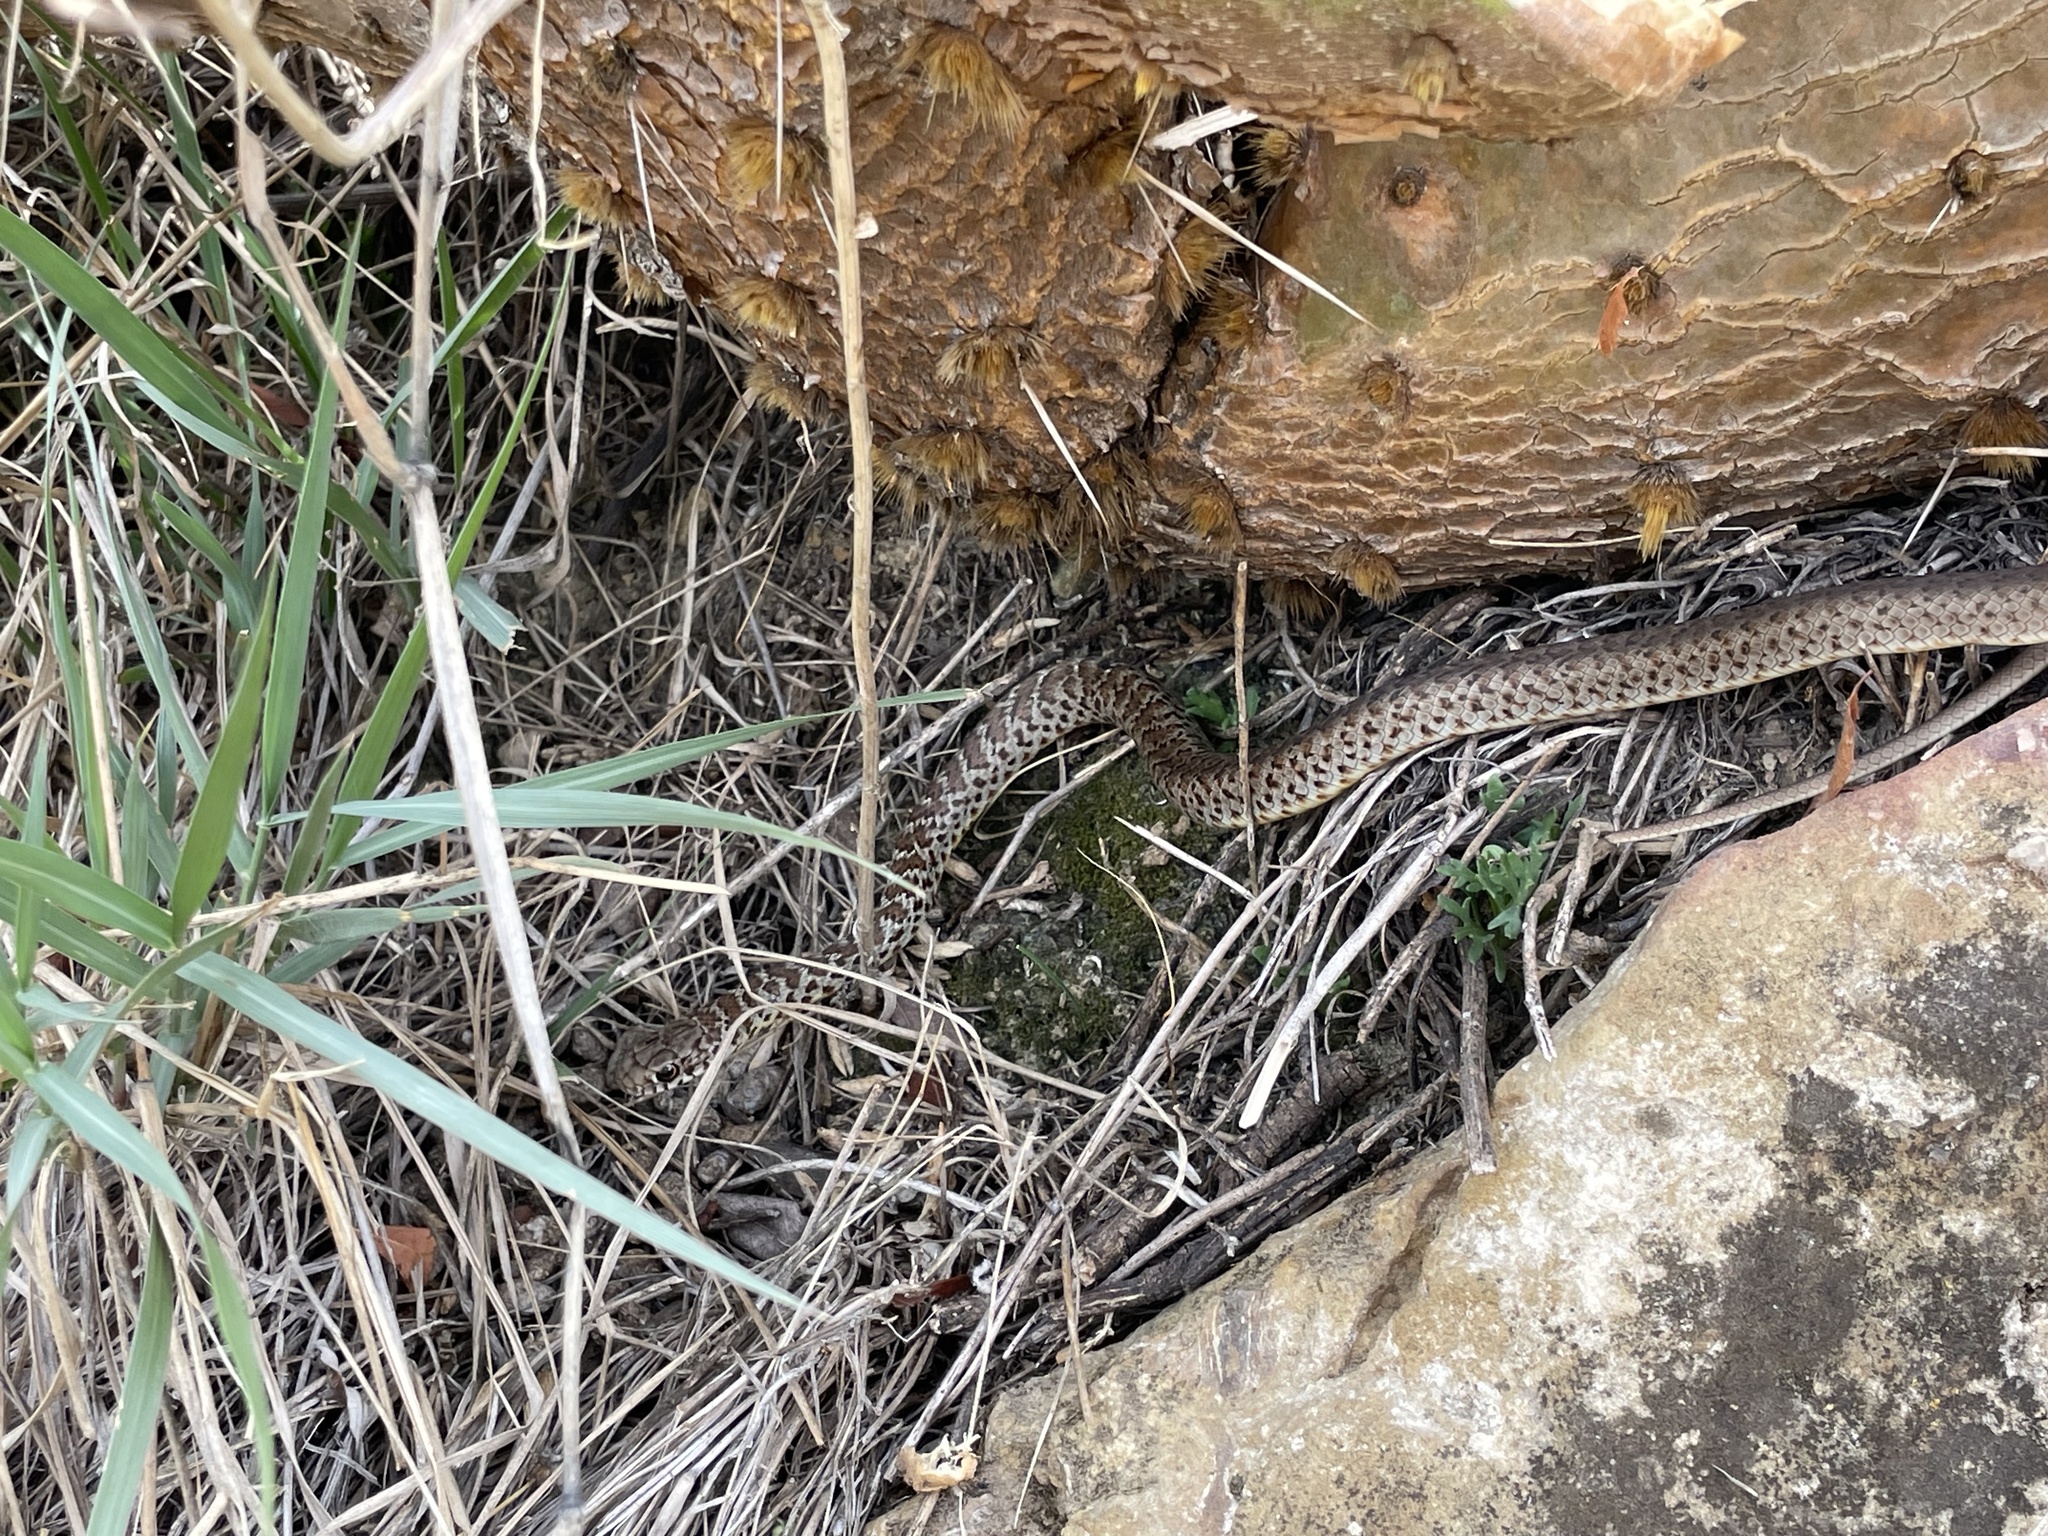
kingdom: Animalia
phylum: Chordata
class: Squamata
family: Colubridae
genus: Coluber
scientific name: Coluber constrictor
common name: Eastern racer
